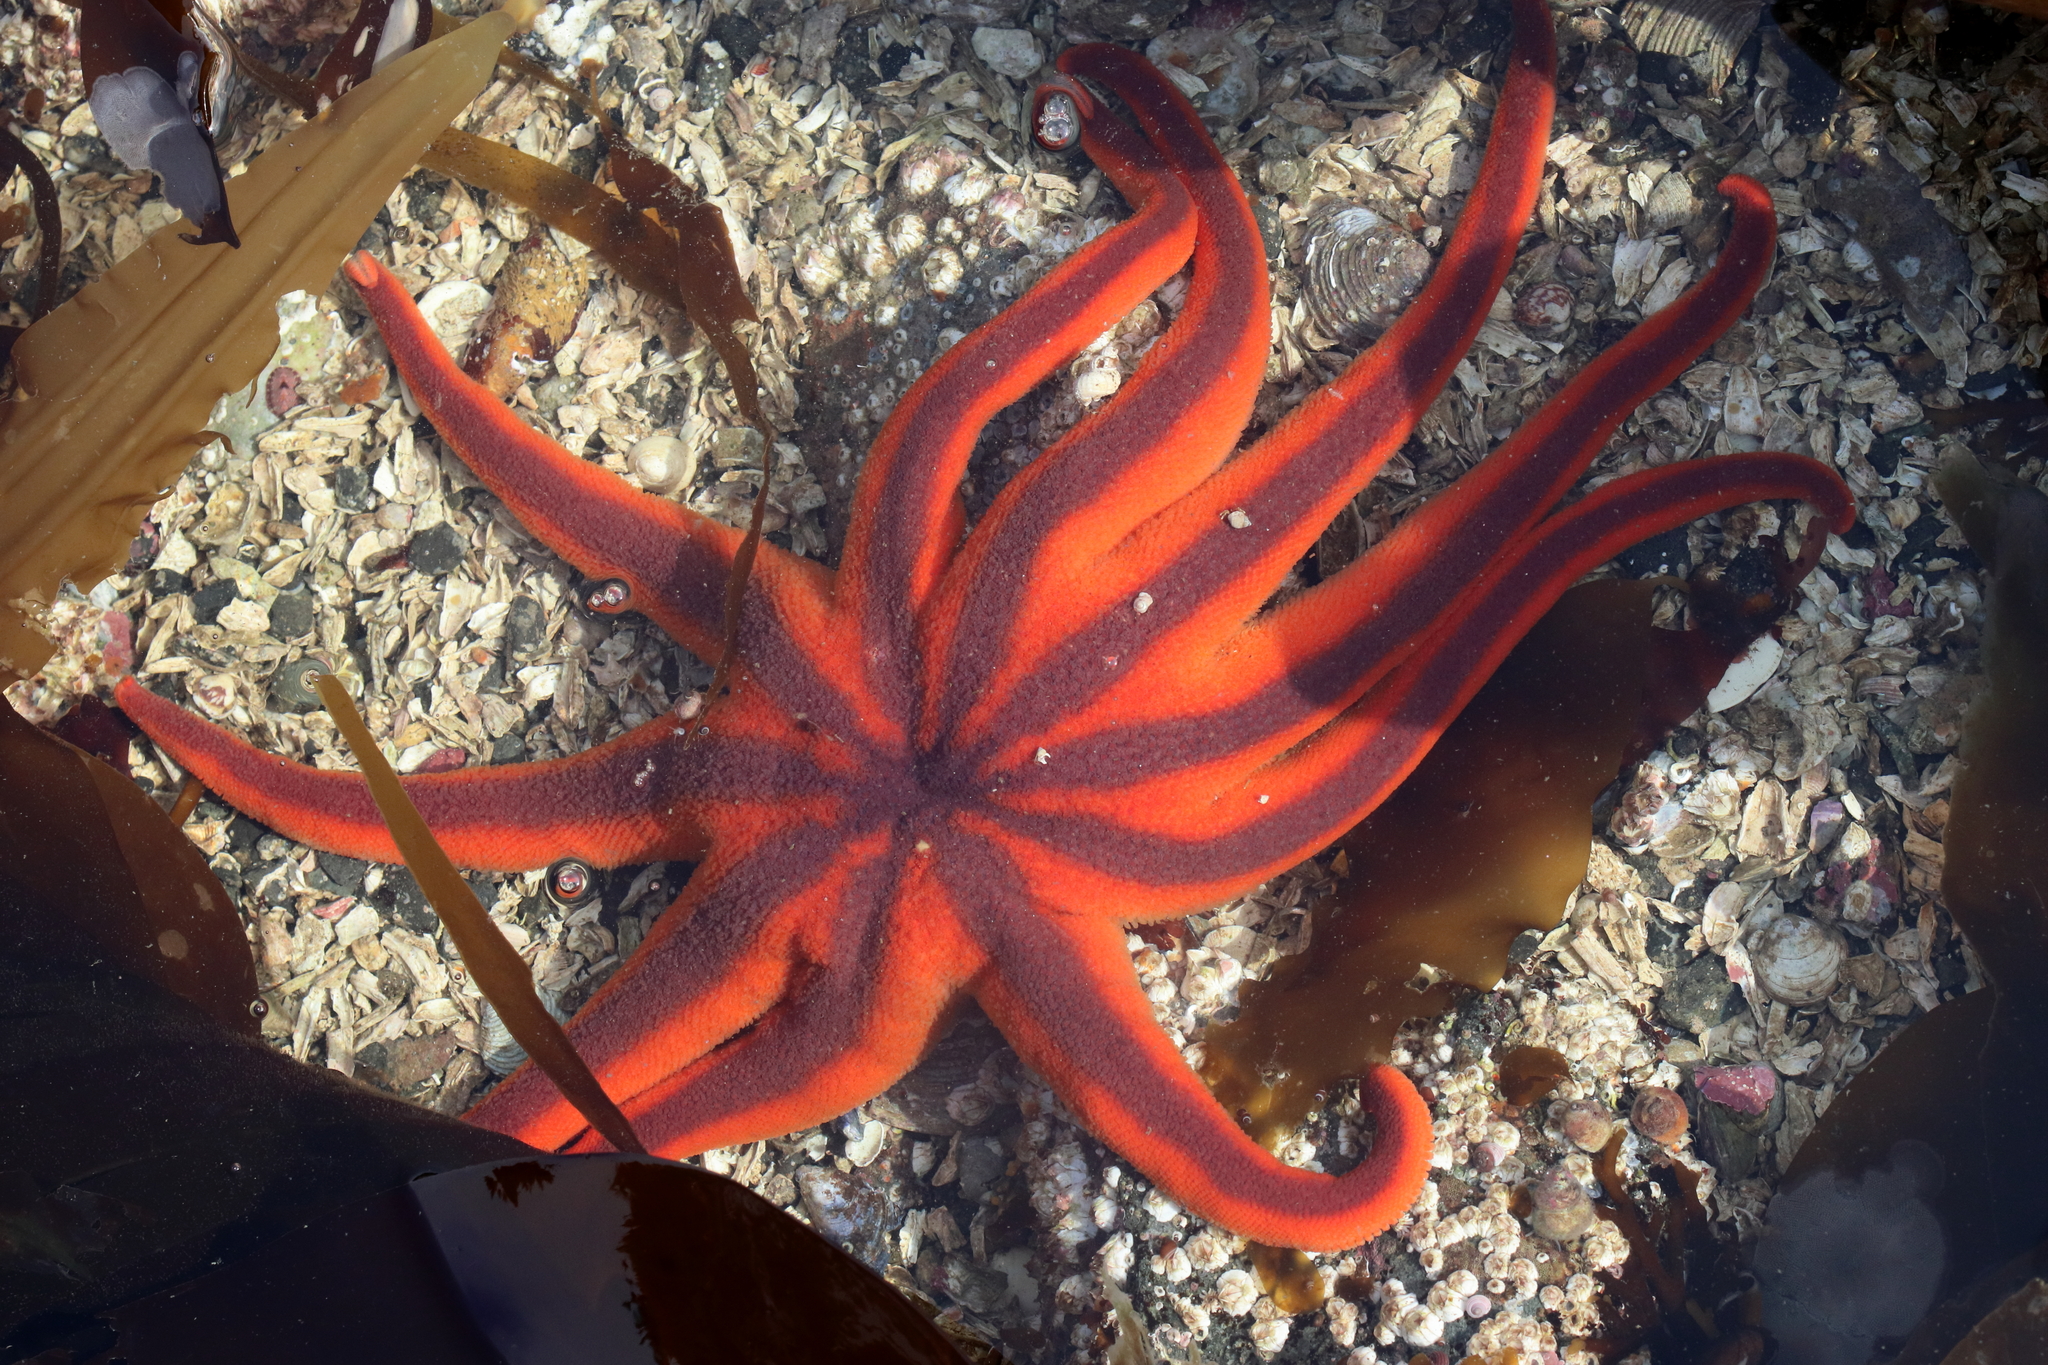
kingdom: Animalia
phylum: Echinodermata
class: Asteroidea
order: Valvatida
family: Solasteridae
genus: Solaster
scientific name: Solaster stimpsoni
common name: Orange sun star
